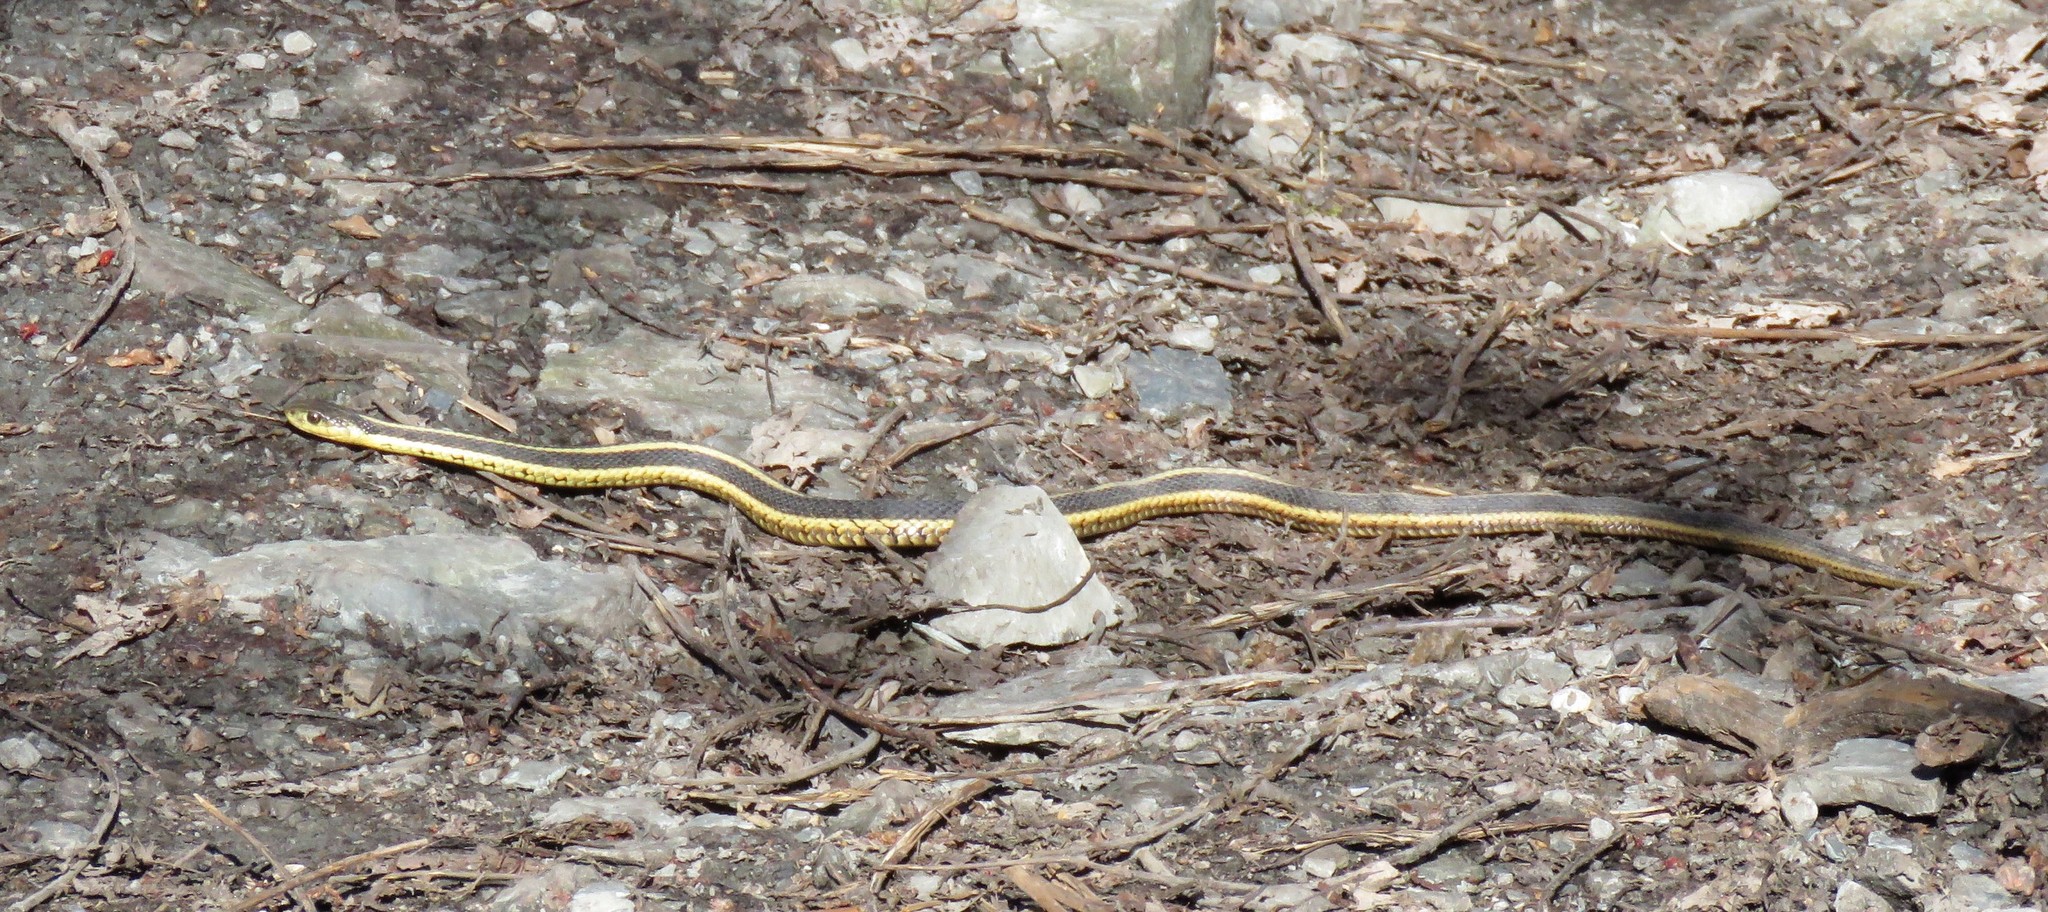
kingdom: Animalia
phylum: Chordata
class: Squamata
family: Colubridae
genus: Thamnophis
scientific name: Thamnophis sirtalis
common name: Common garter snake
